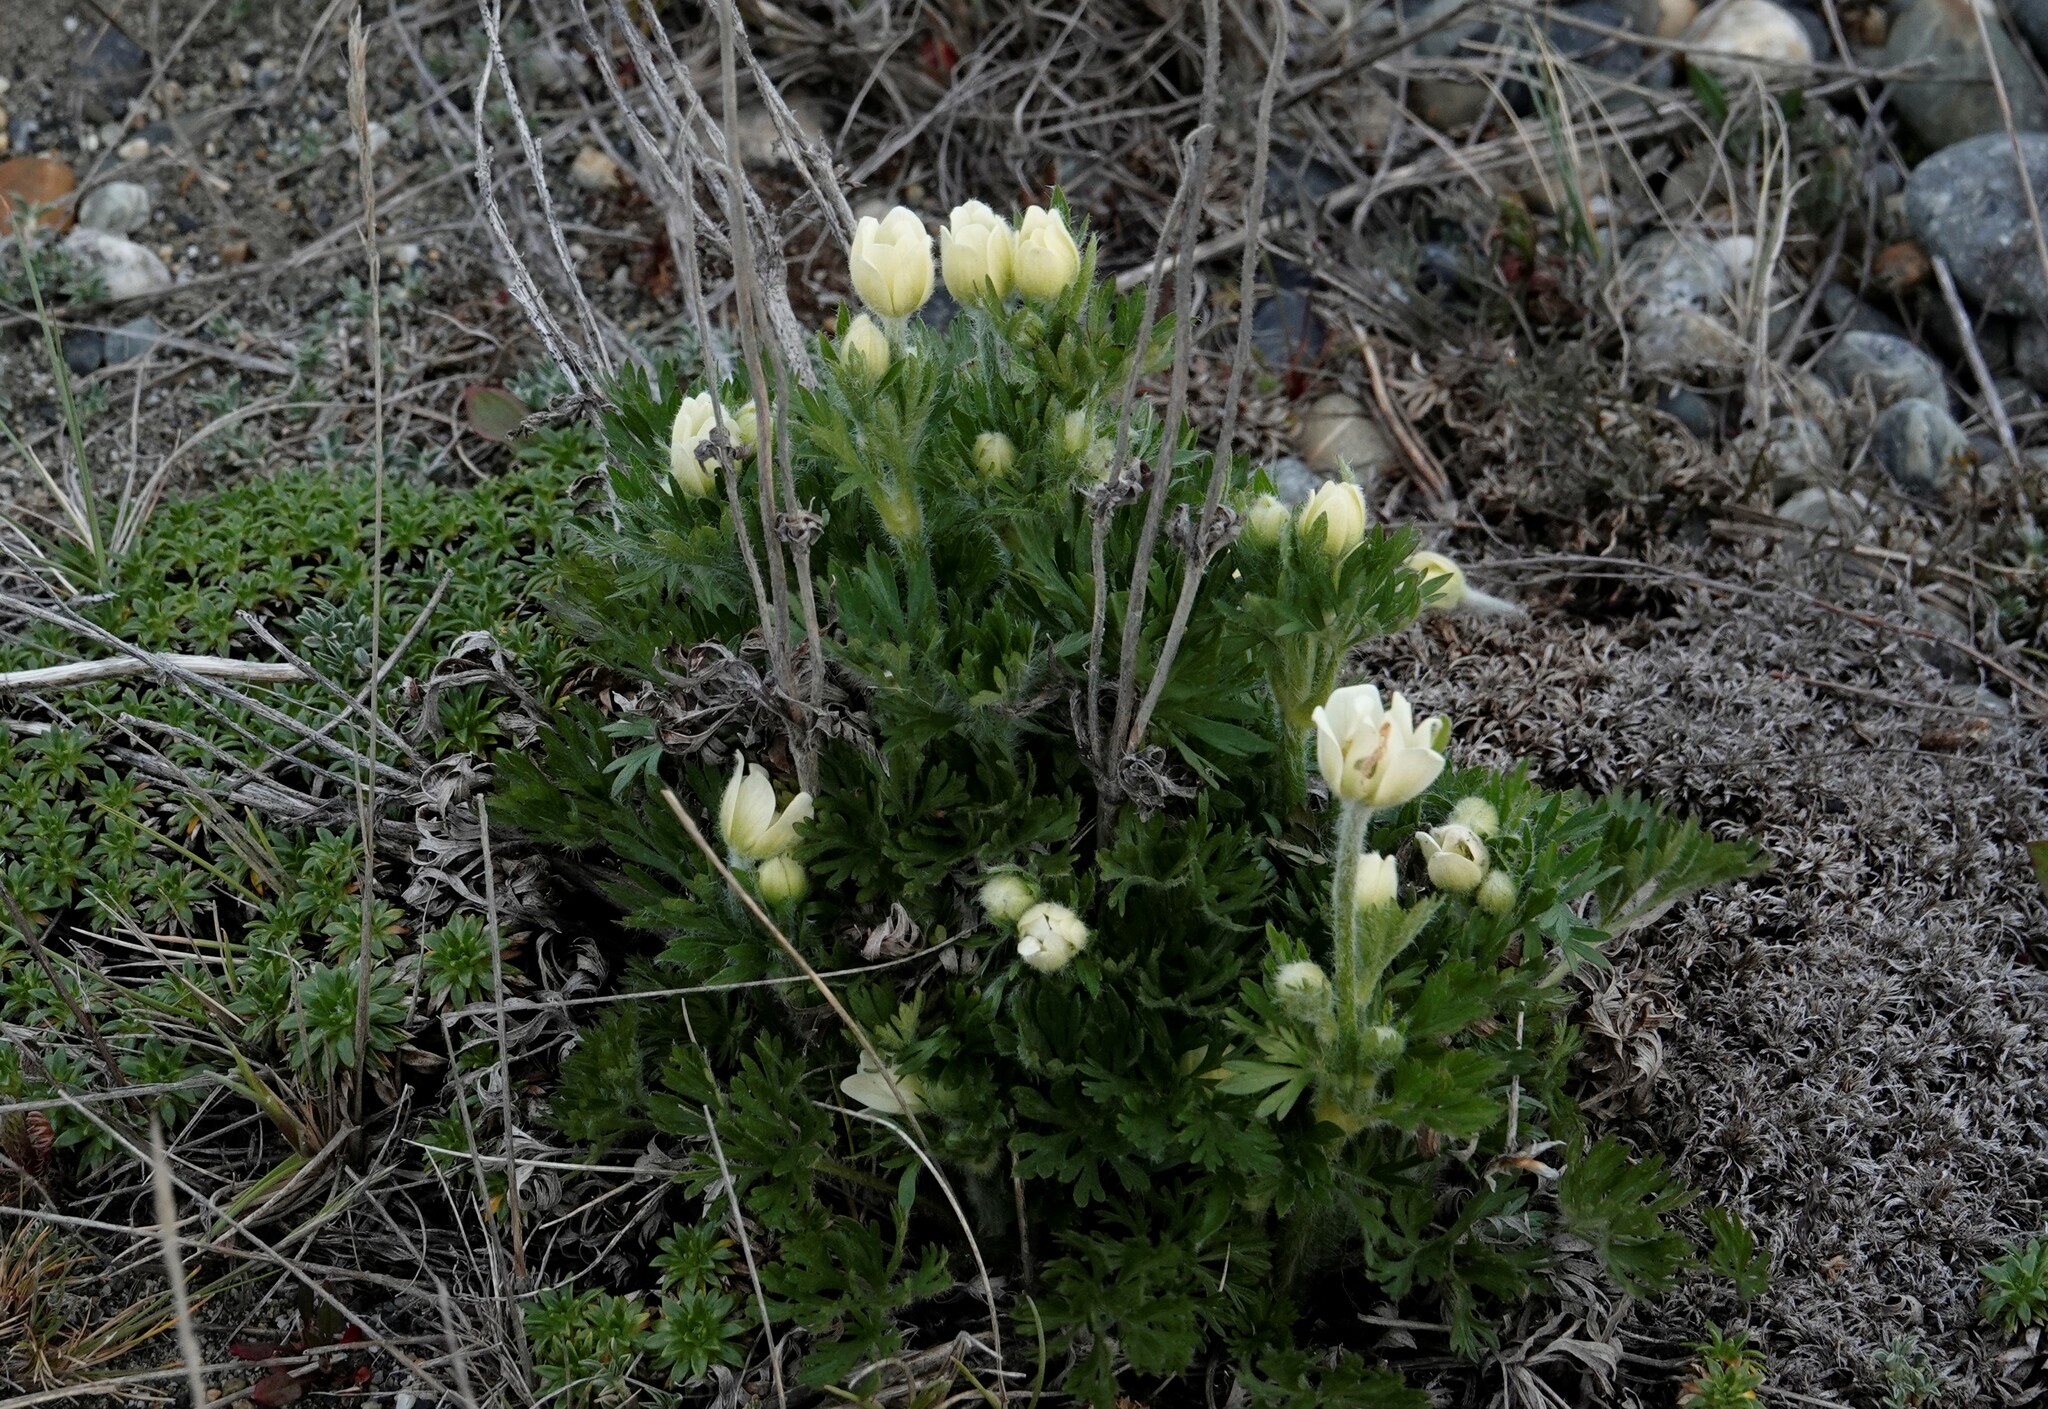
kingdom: Plantae
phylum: Tracheophyta
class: Magnoliopsida
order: Ranunculales
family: Ranunculaceae
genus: Anemone
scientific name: Anemone multifida
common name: Bird's-foot anemone
